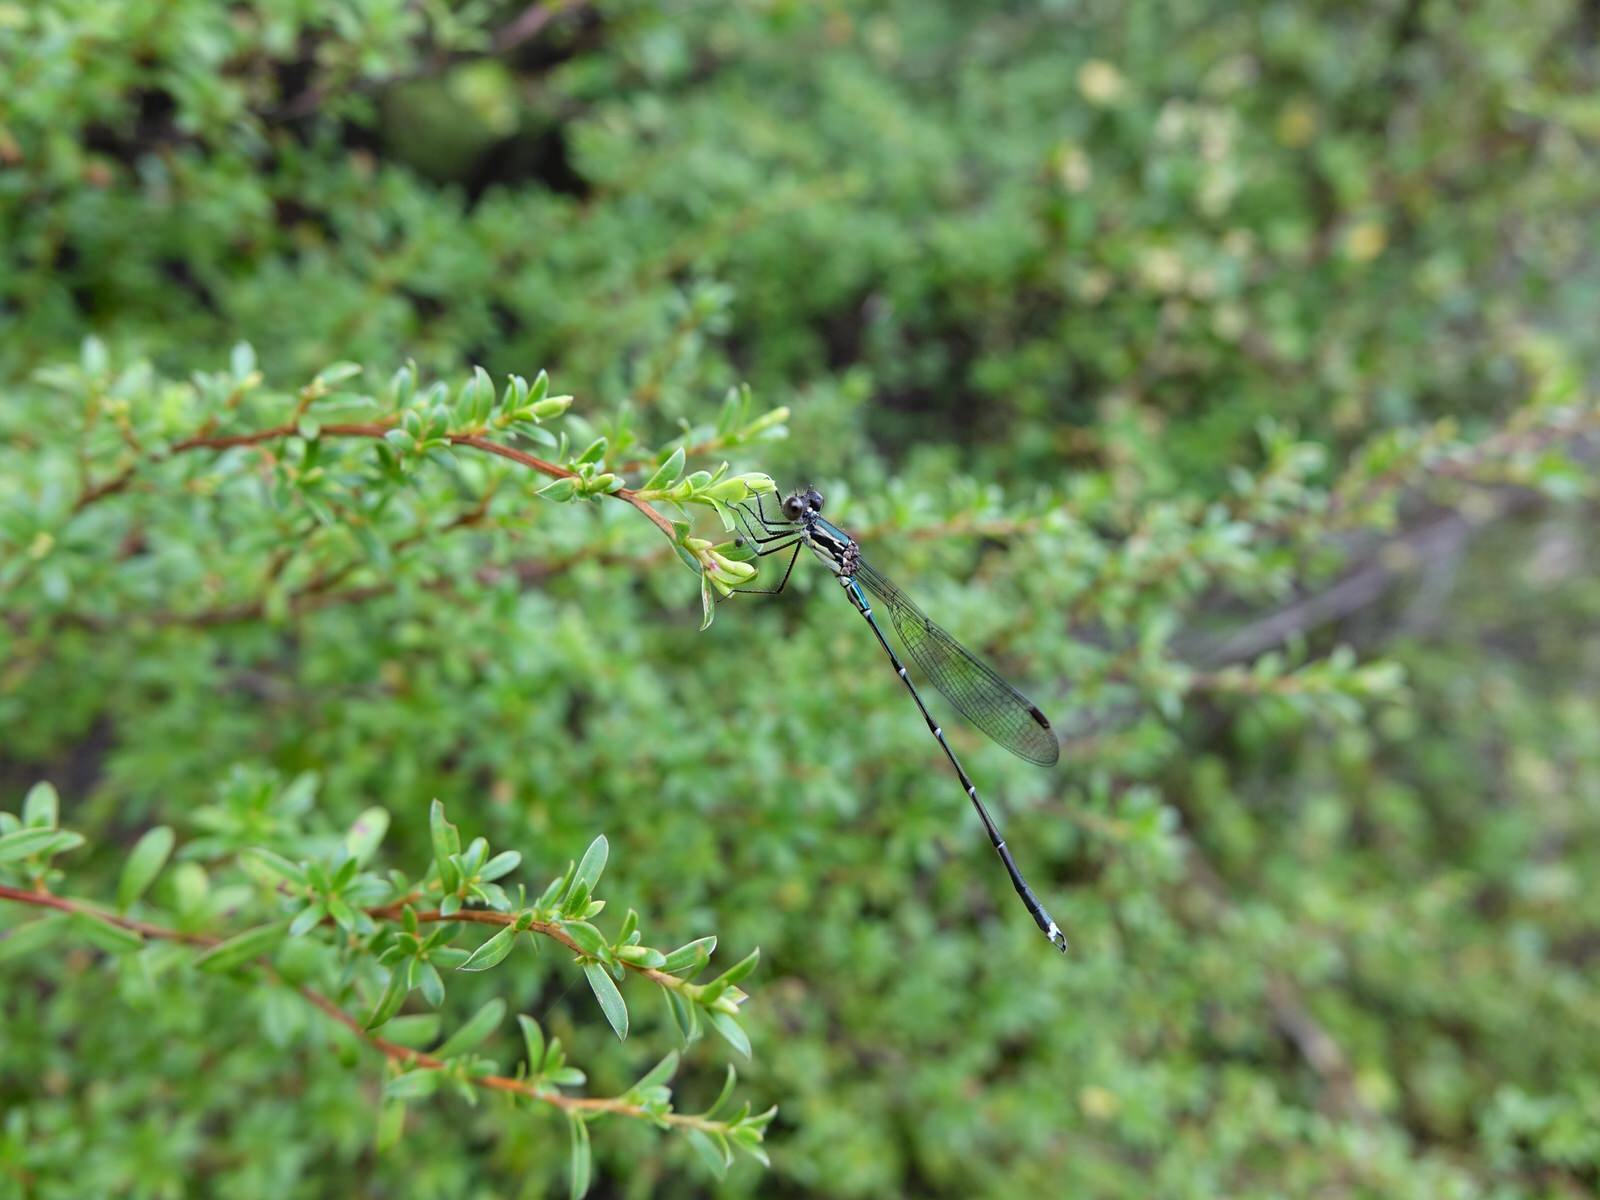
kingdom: Animalia
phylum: Arthropoda
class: Insecta
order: Odonata
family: Lestidae
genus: Austrolestes
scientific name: Austrolestes colensonis
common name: Blue damselfly
